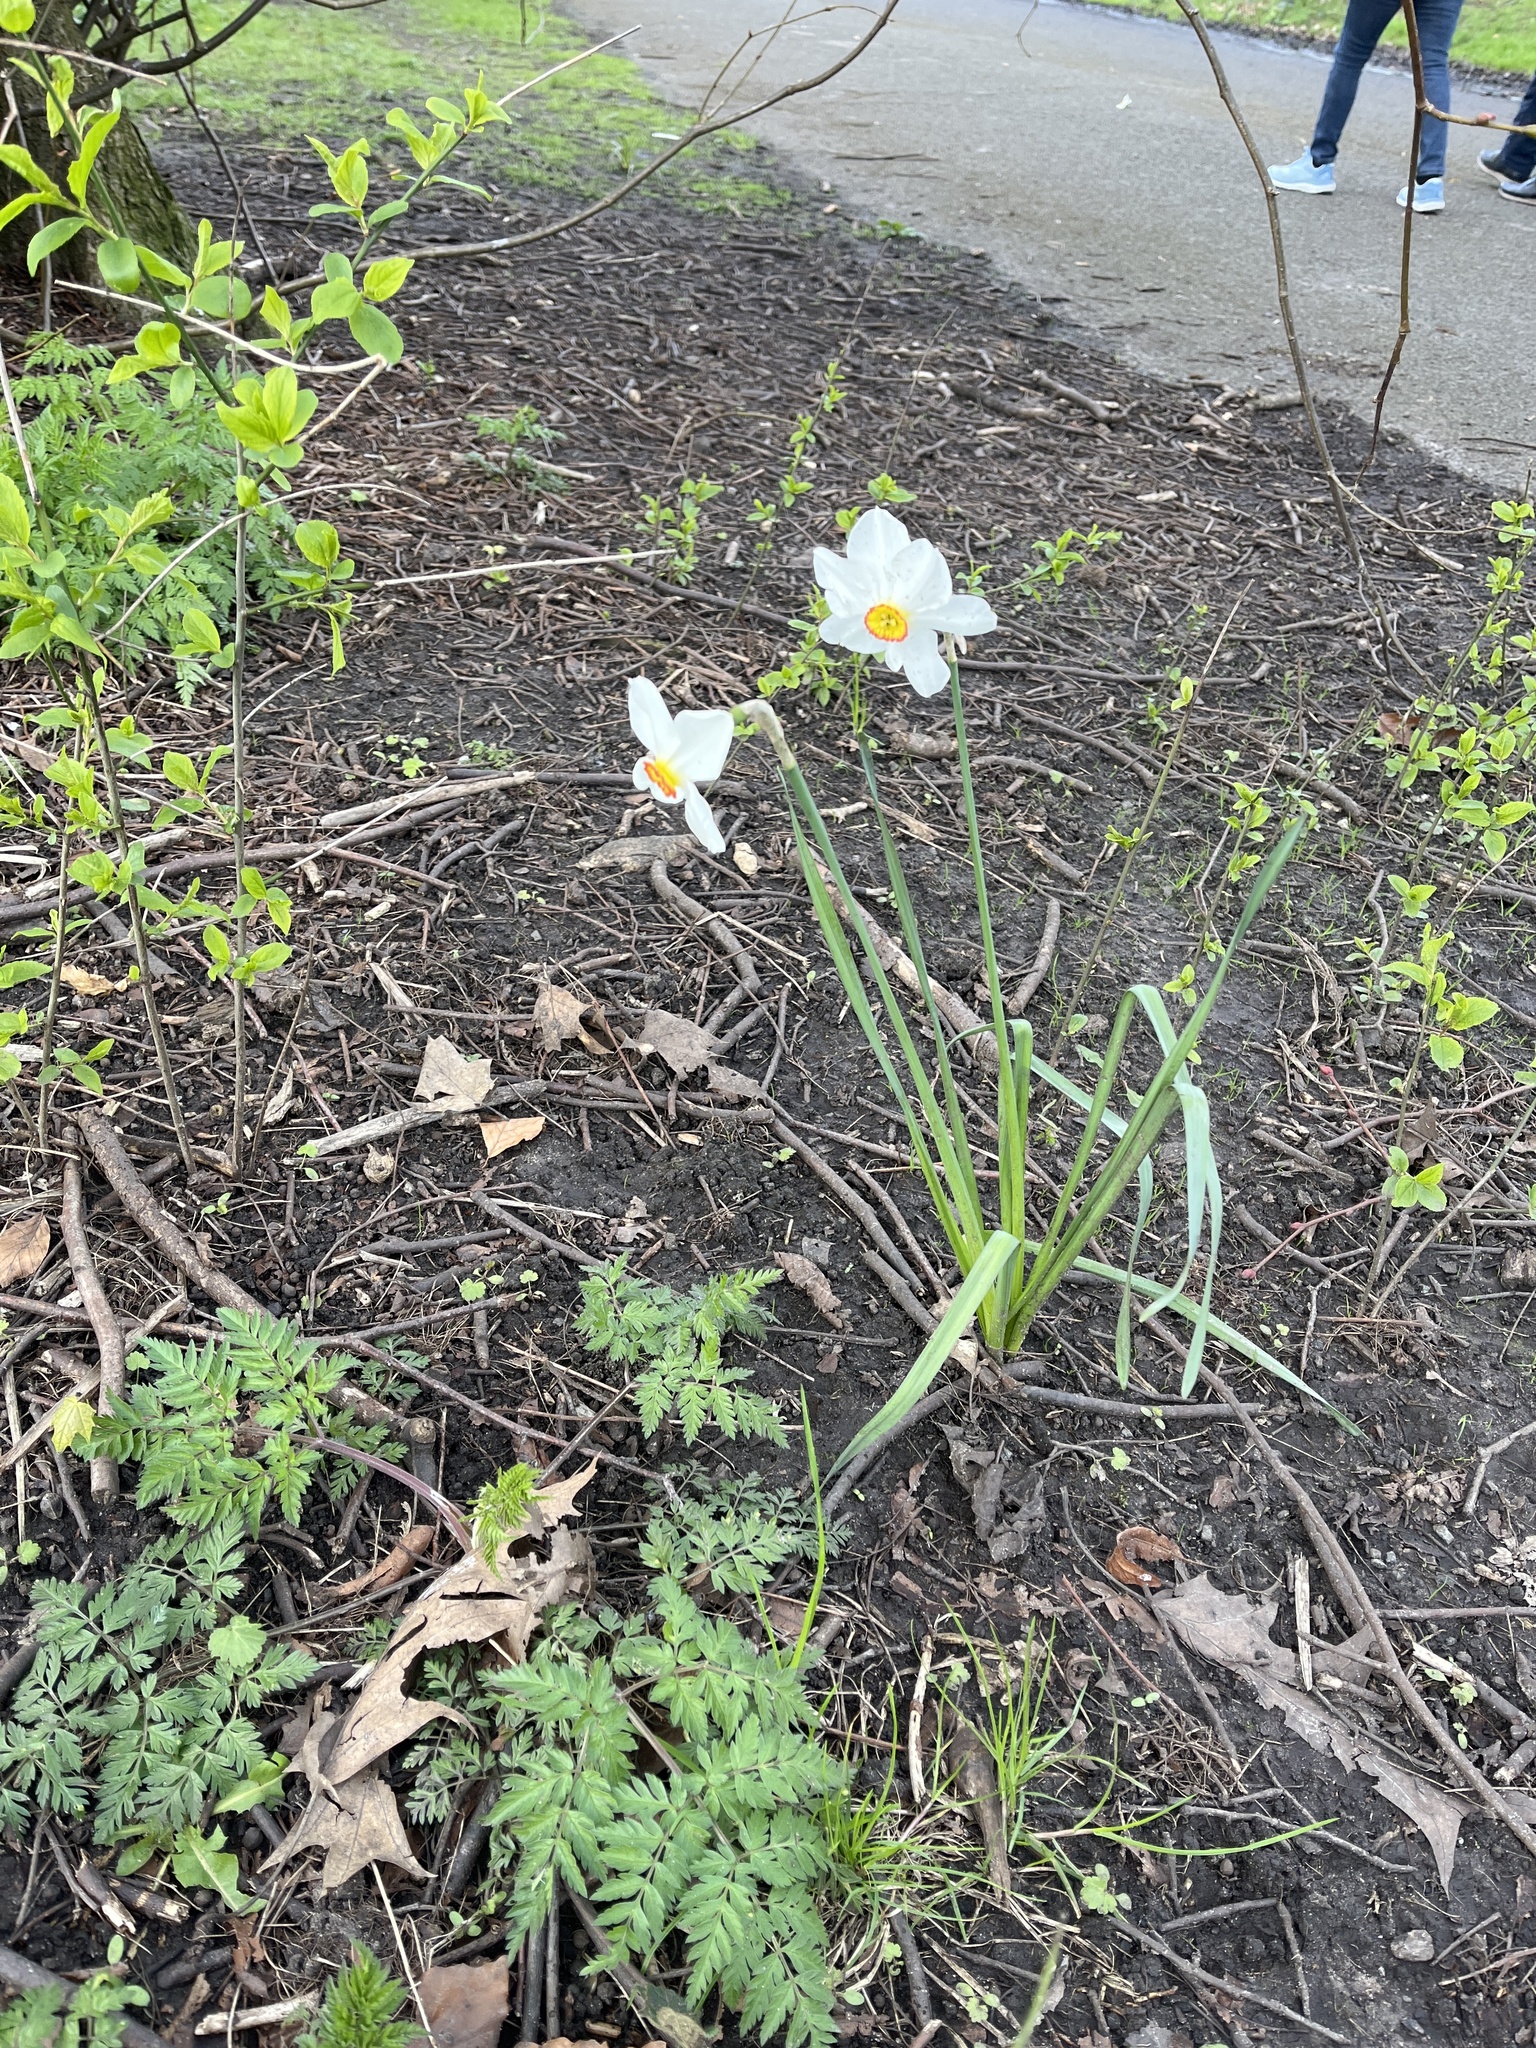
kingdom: Plantae
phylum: Tracheophyta
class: Liliopsida
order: Asparagales
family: Amaryllidaceae
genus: Narcissus
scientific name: Narcissus poeticus
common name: Pheasant's-eye daffodil
